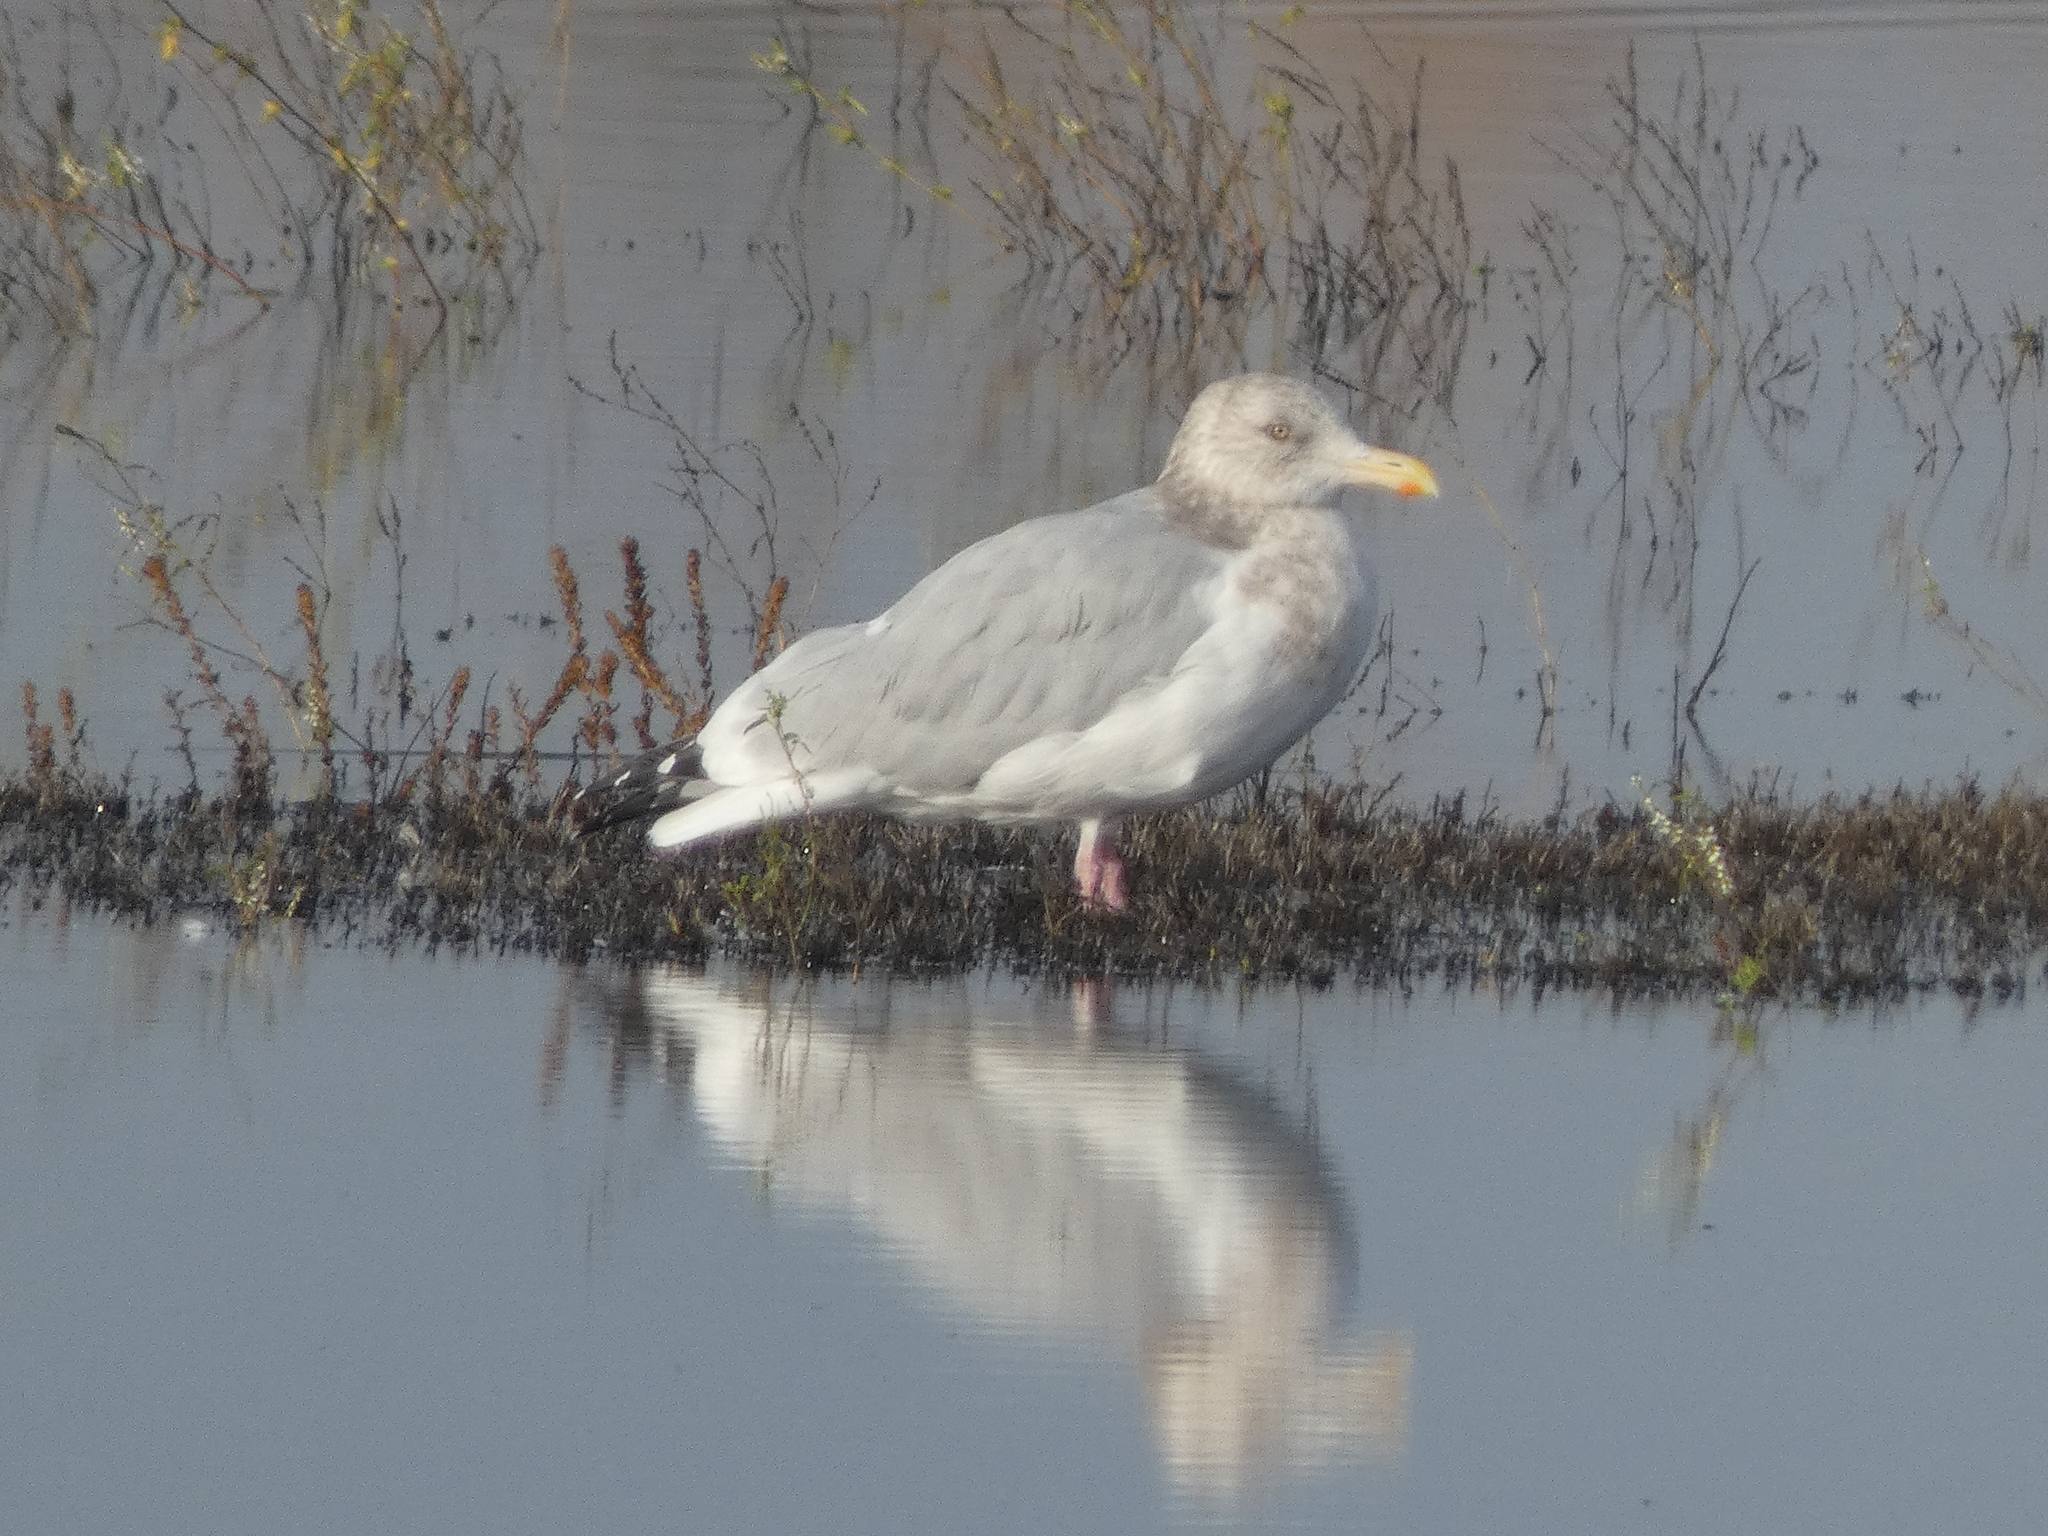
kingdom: Animalia
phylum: Chordata
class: Aves
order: Charadriiformes
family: Laridae
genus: Larus
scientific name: Larus argentatus
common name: Herring gull
